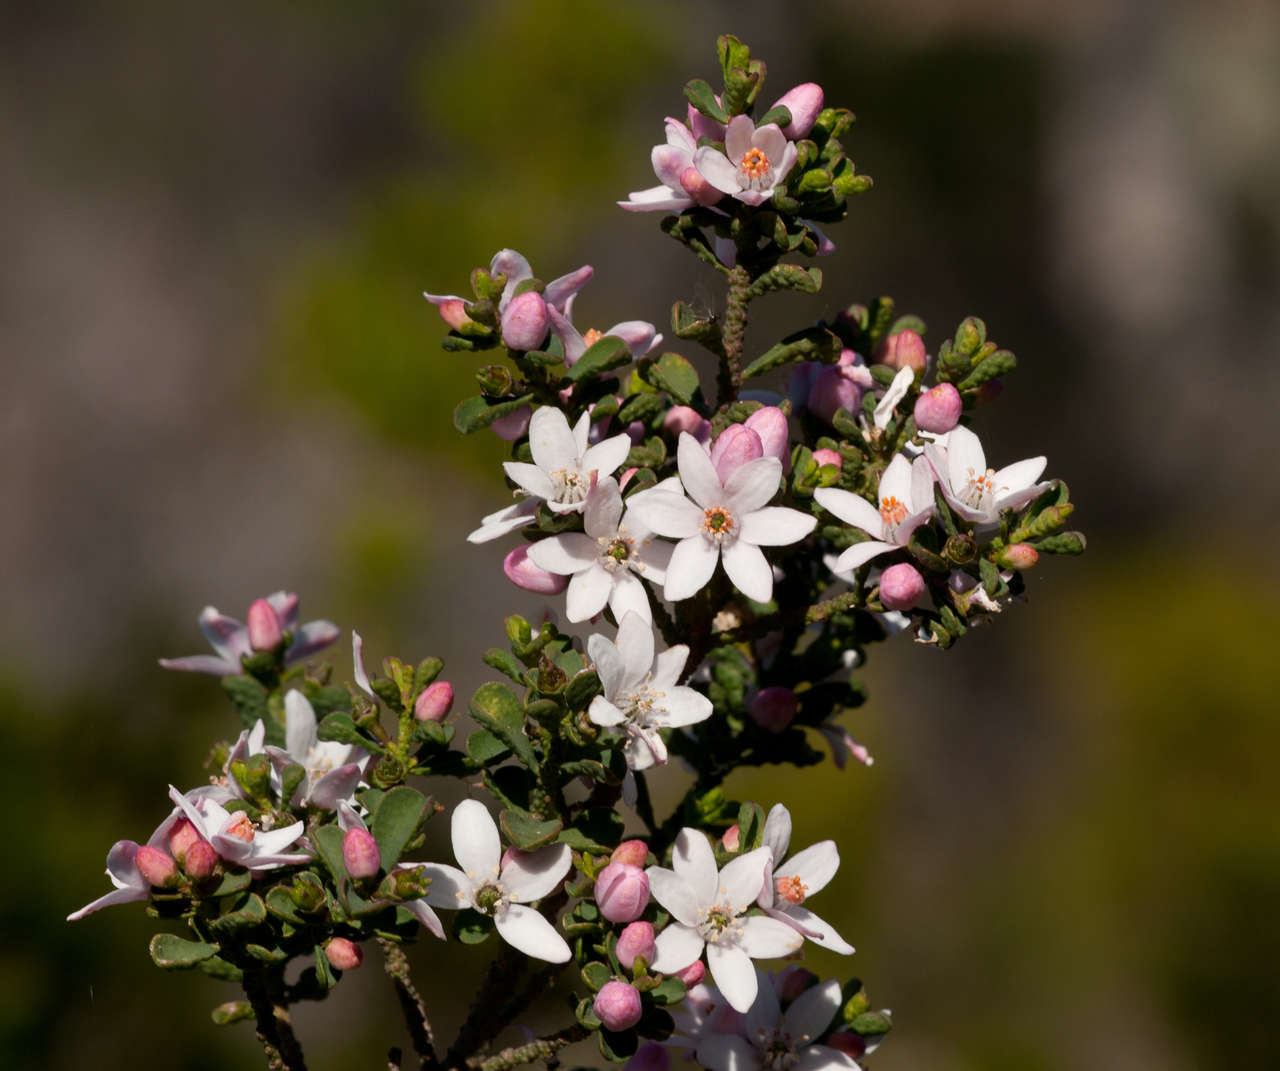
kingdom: Plantae
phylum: Tracheophyta
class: Magnoliopsida
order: Sapindales
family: Rutaceae
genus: Philotheca
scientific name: Philotheca verrucosa
